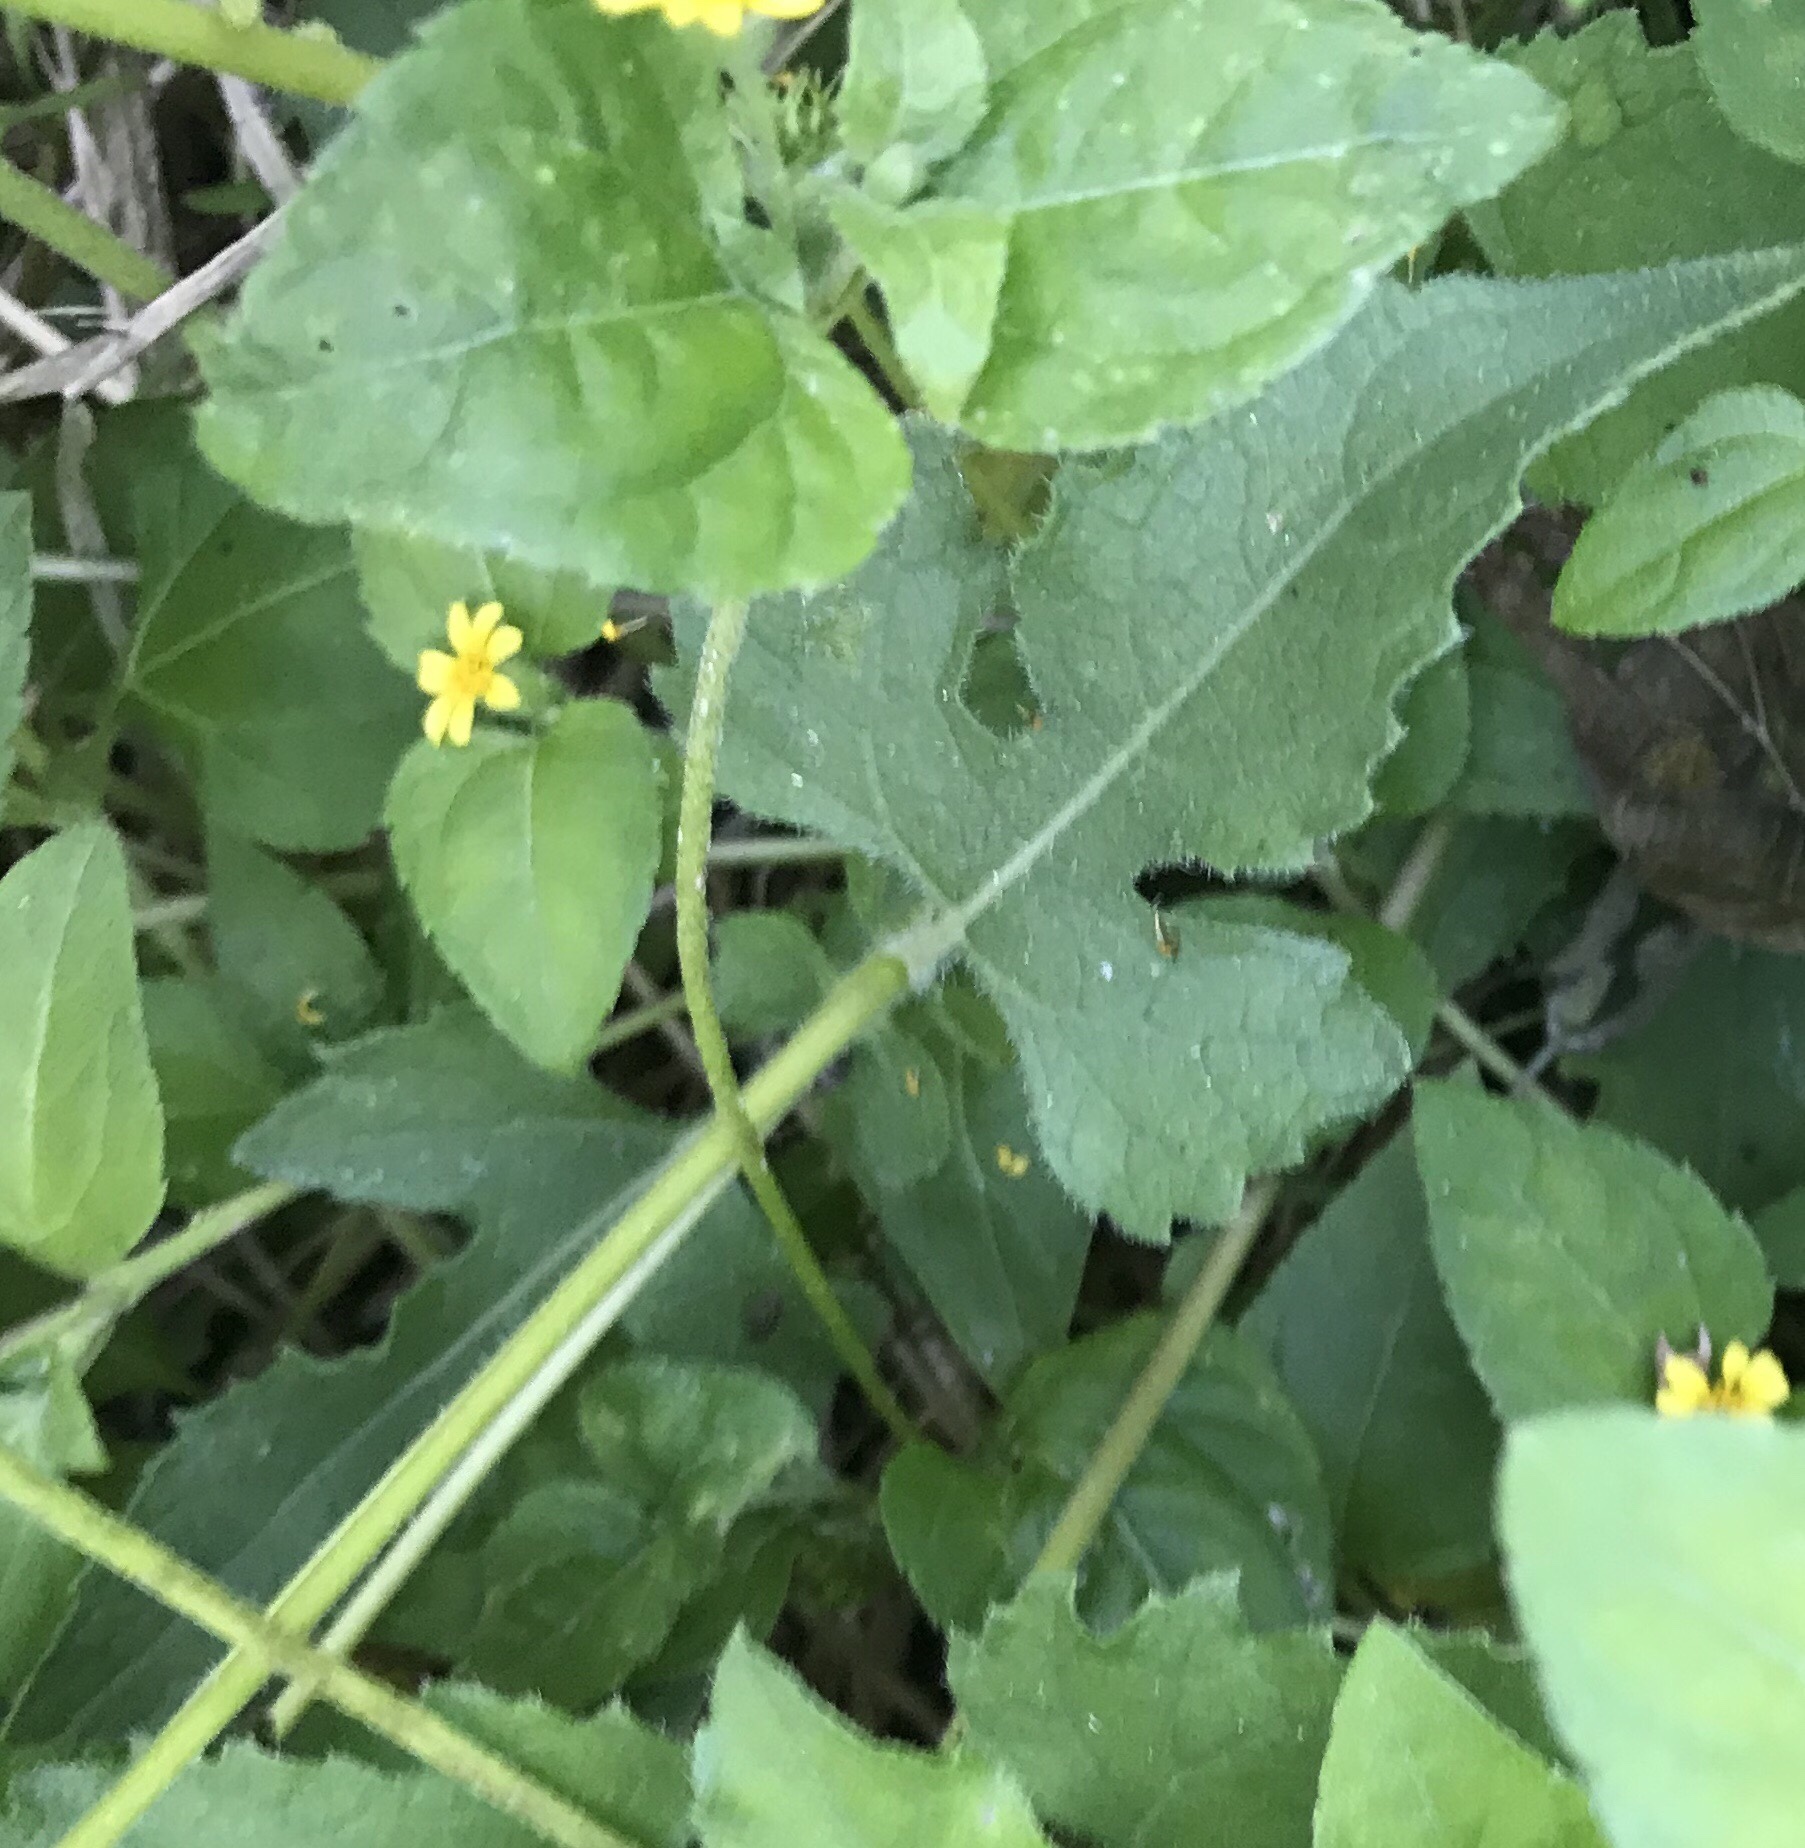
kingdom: Plantae
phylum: Tracheophyta
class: Magnoliopsida
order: Asterales
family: Asteraceae
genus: Simsia
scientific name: Simsia calva
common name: Awnless bush-sunflower
